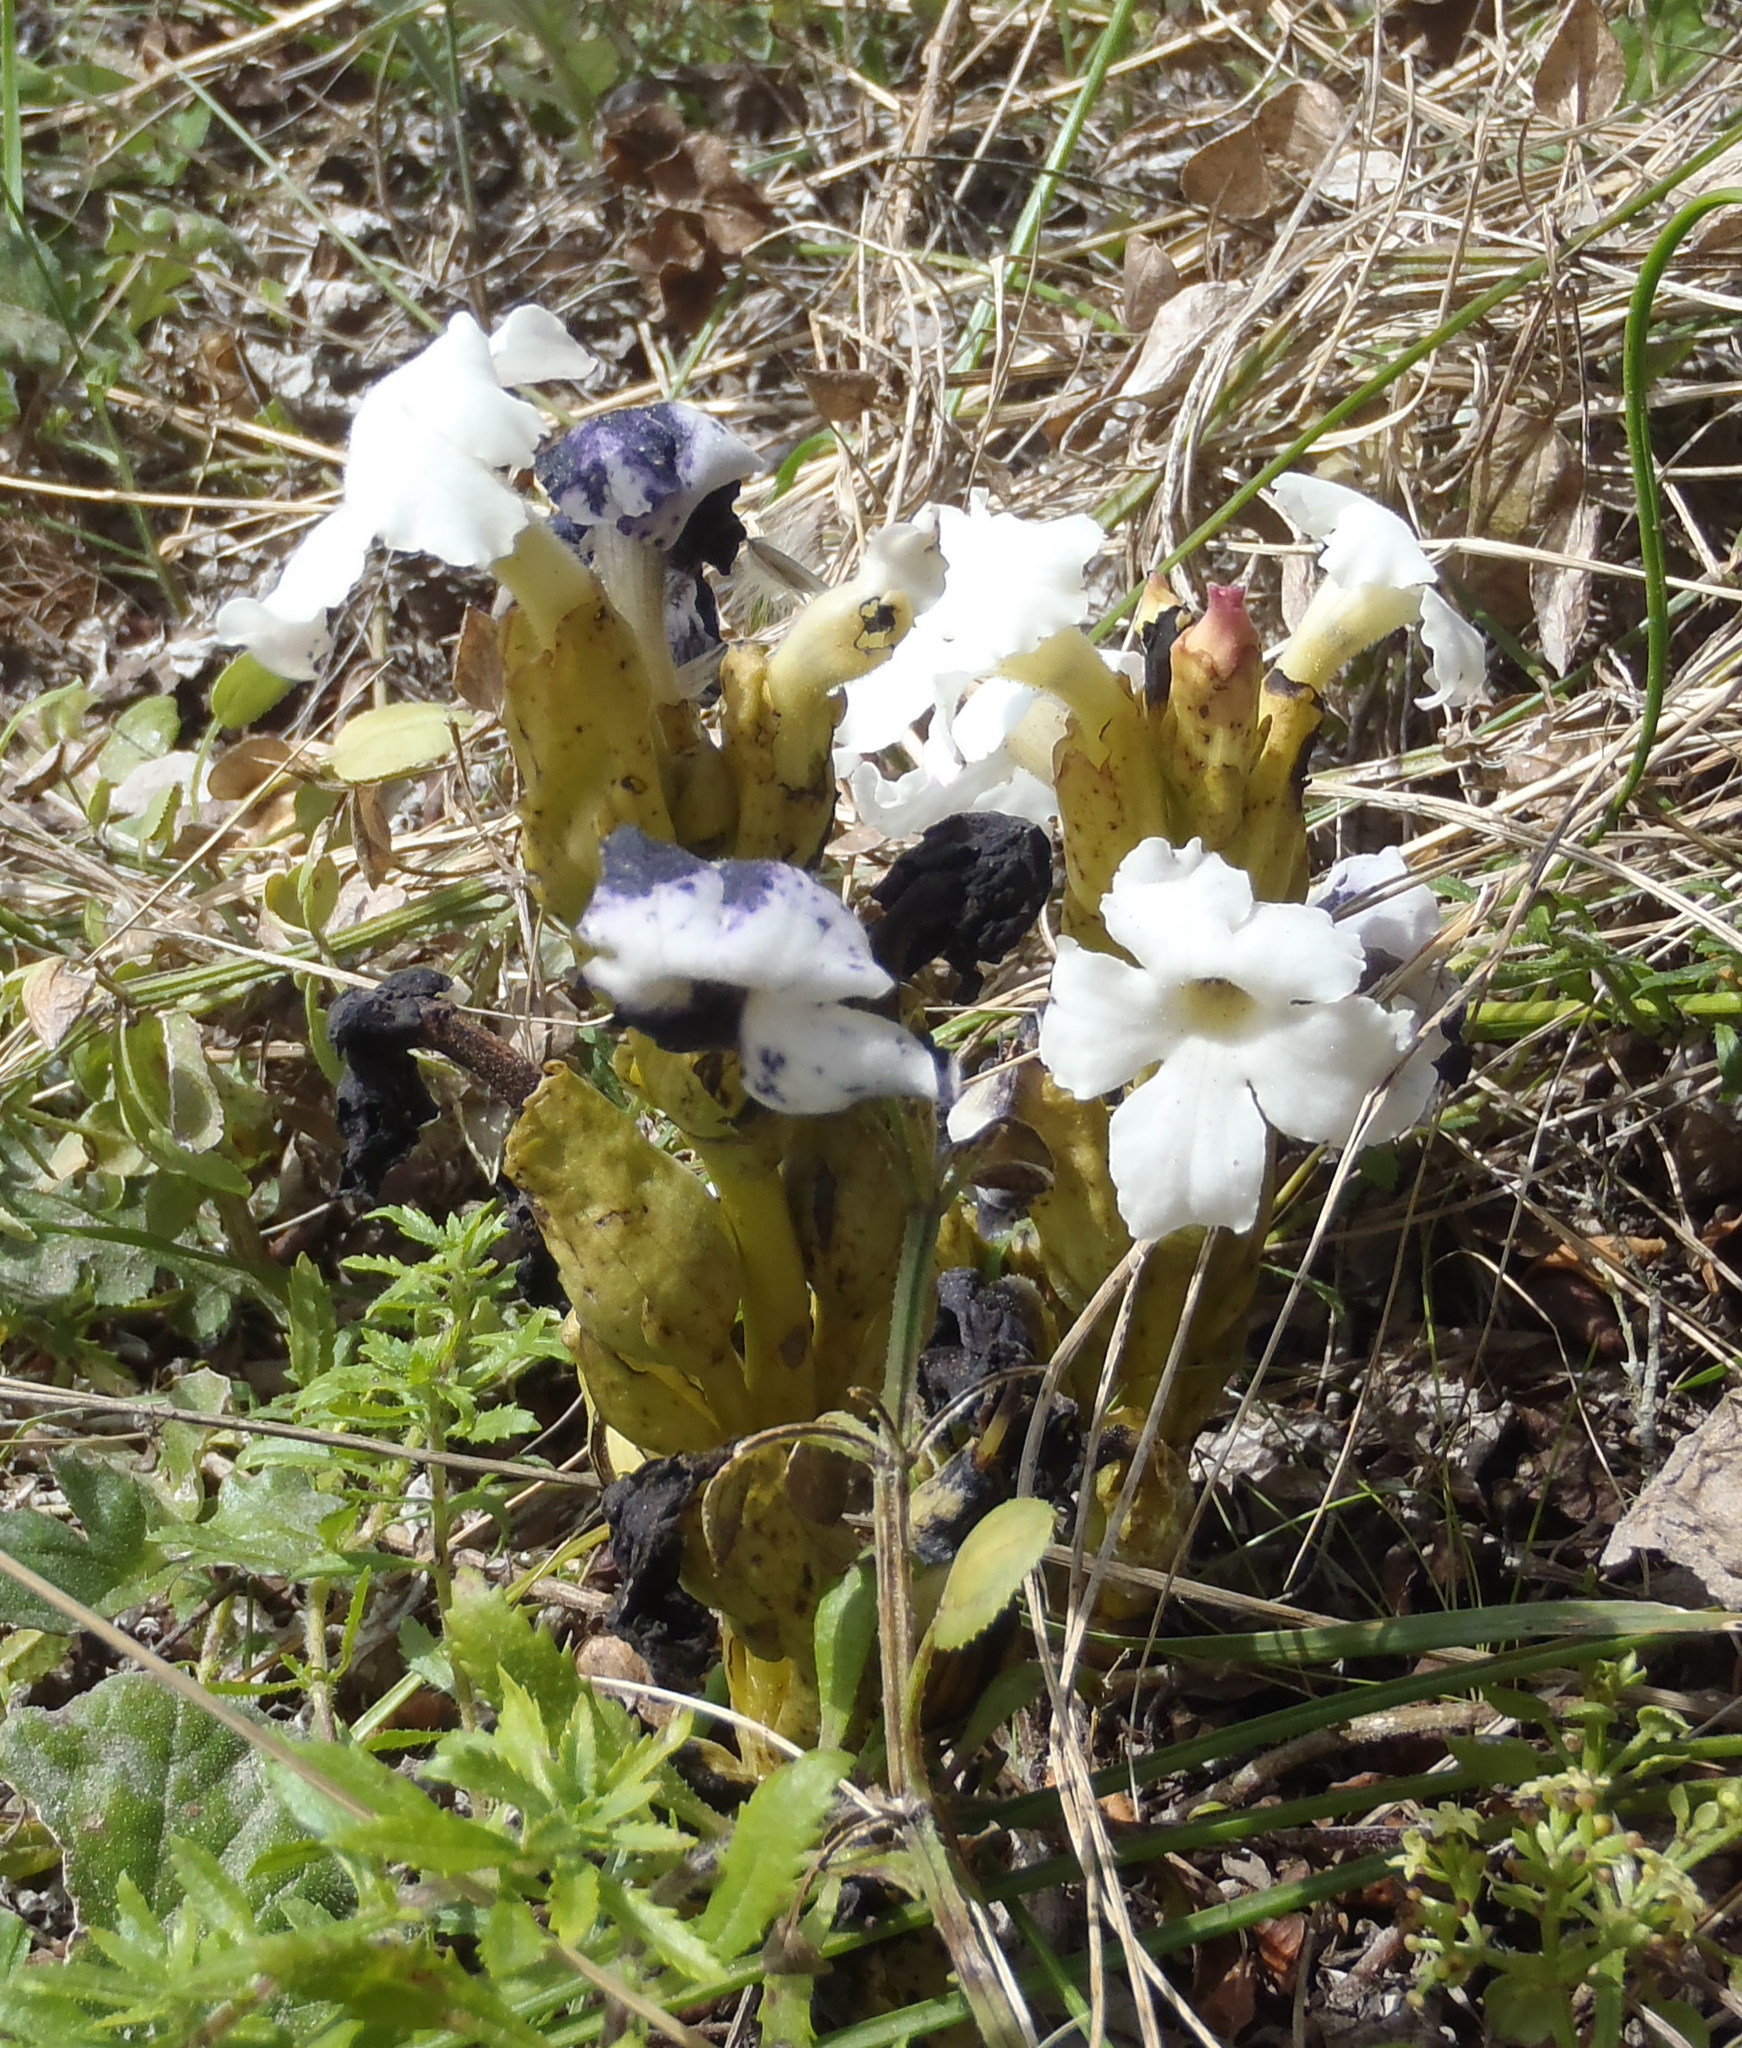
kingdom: Plantae
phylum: Tracheophyta
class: Magnoliopsida
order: Lamiales
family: Orobanchaceae
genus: Harveya
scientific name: Harveya capensis
